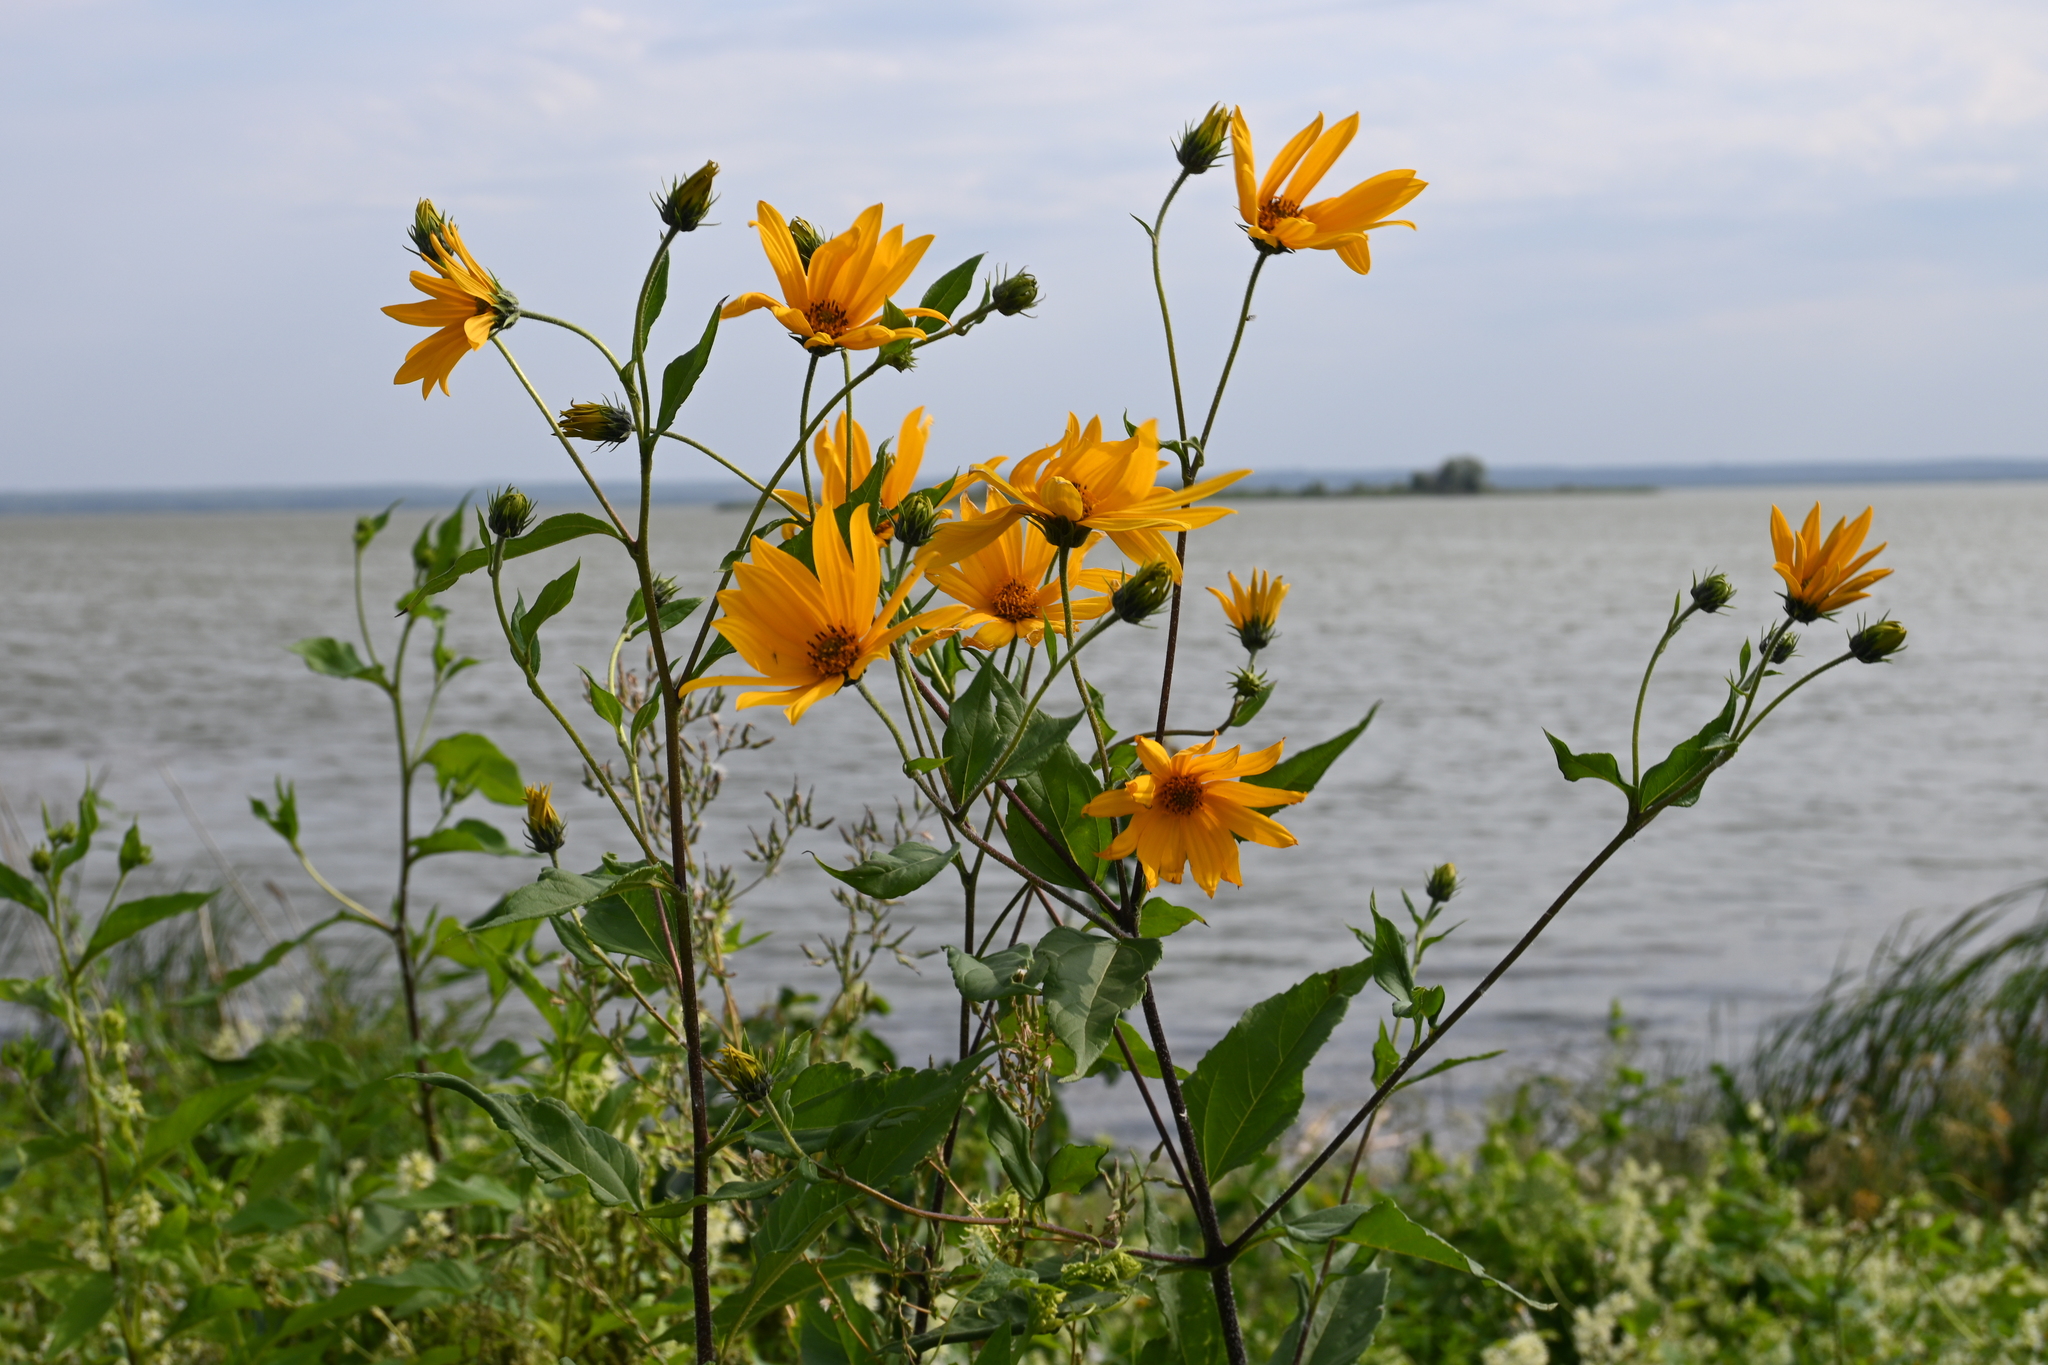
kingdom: Plantae
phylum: Tracheophyta
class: Magnoliopsida
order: Asterales
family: Asteraceae
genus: Helianthus
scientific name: Helianthus tuberosus
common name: Jerusalem artichoke
